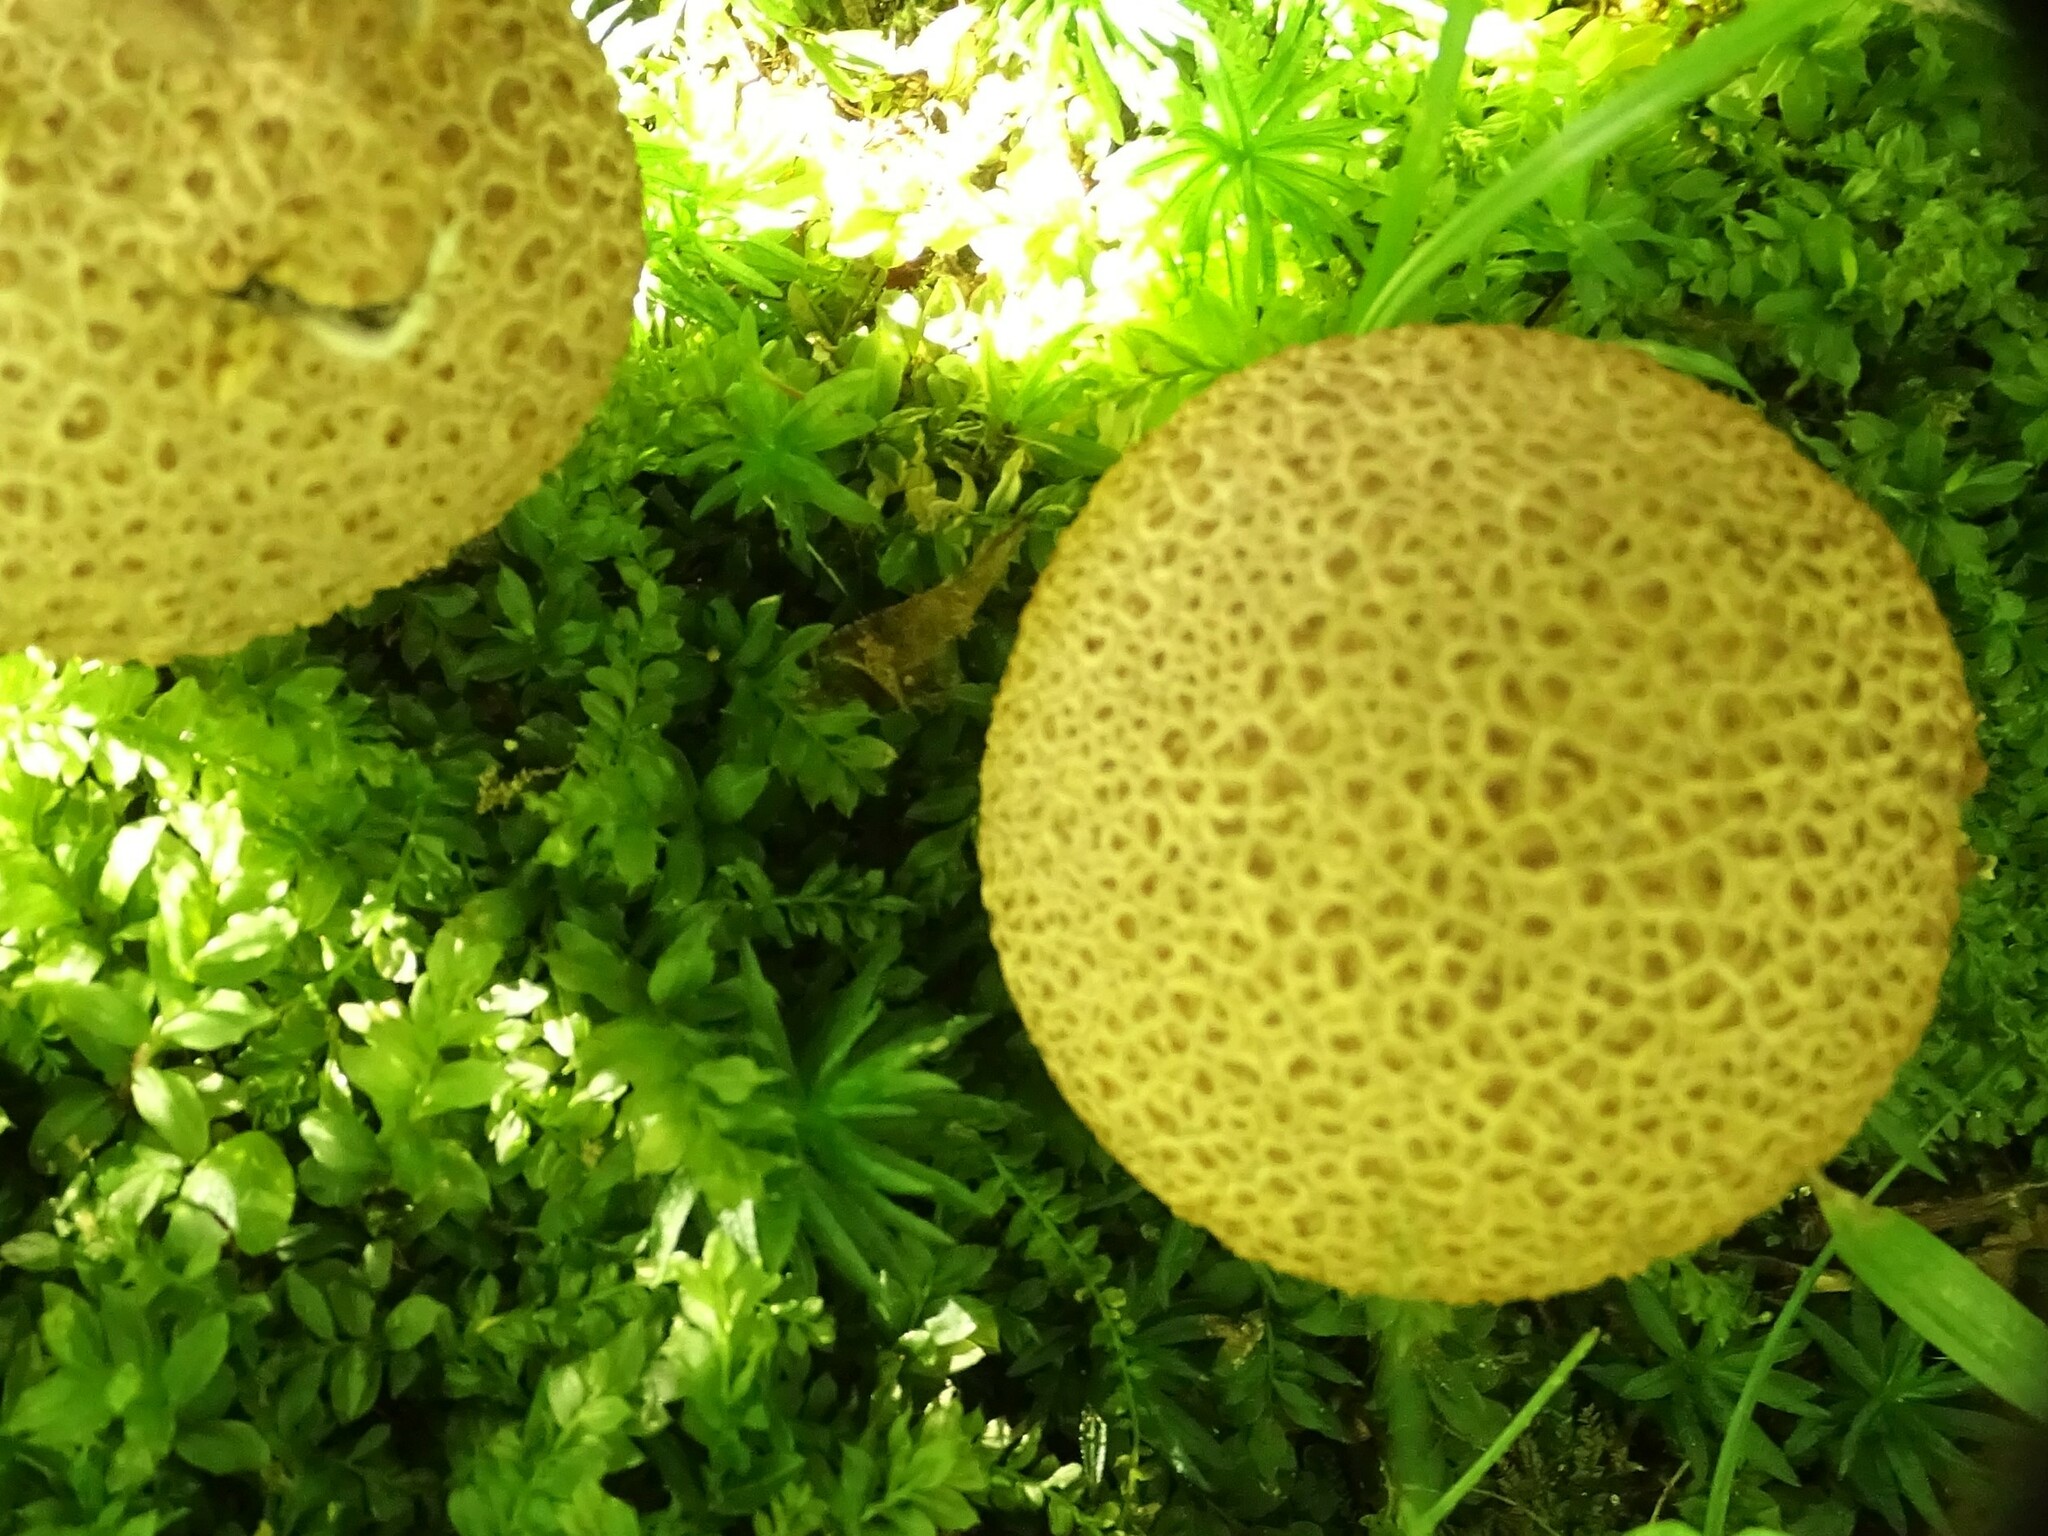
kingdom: Fungi
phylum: Basidiomycota
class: Agaricomycetes
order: Boletales
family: Sclerodermataceae
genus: Scleroderma
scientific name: Scleroderma citrinum
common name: Common earthball
